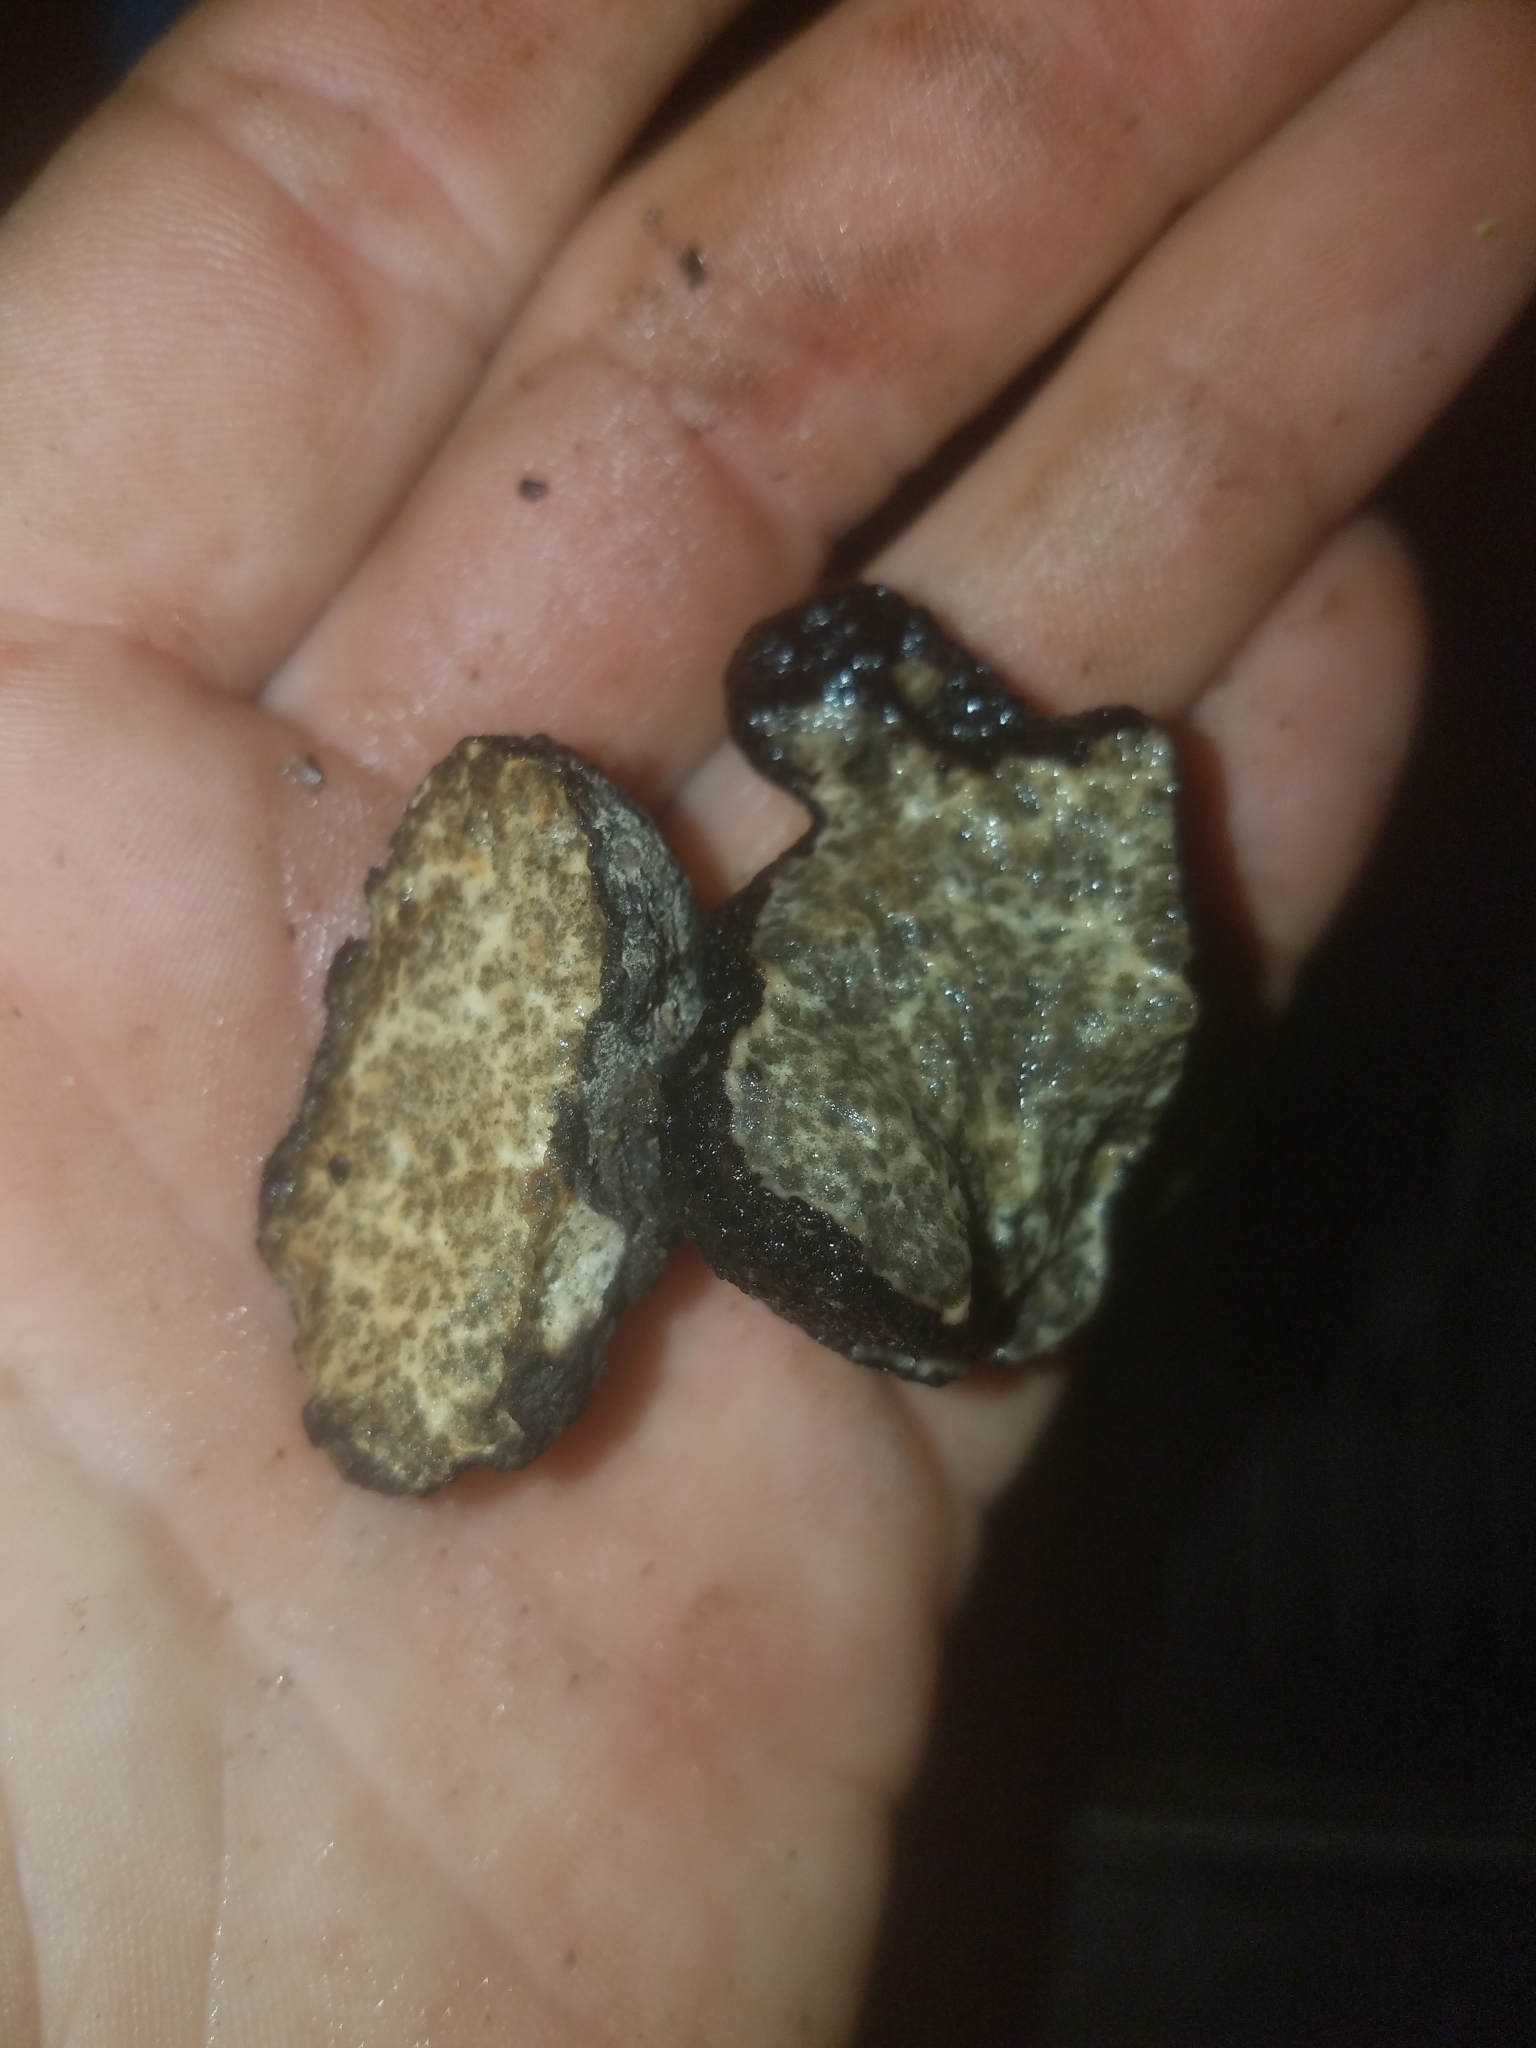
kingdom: Fungi
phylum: Ascomycota
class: Pezizomycetes
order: Pezizales
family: Morchellaceae
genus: Leucangium
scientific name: Leucangium carthusianum
